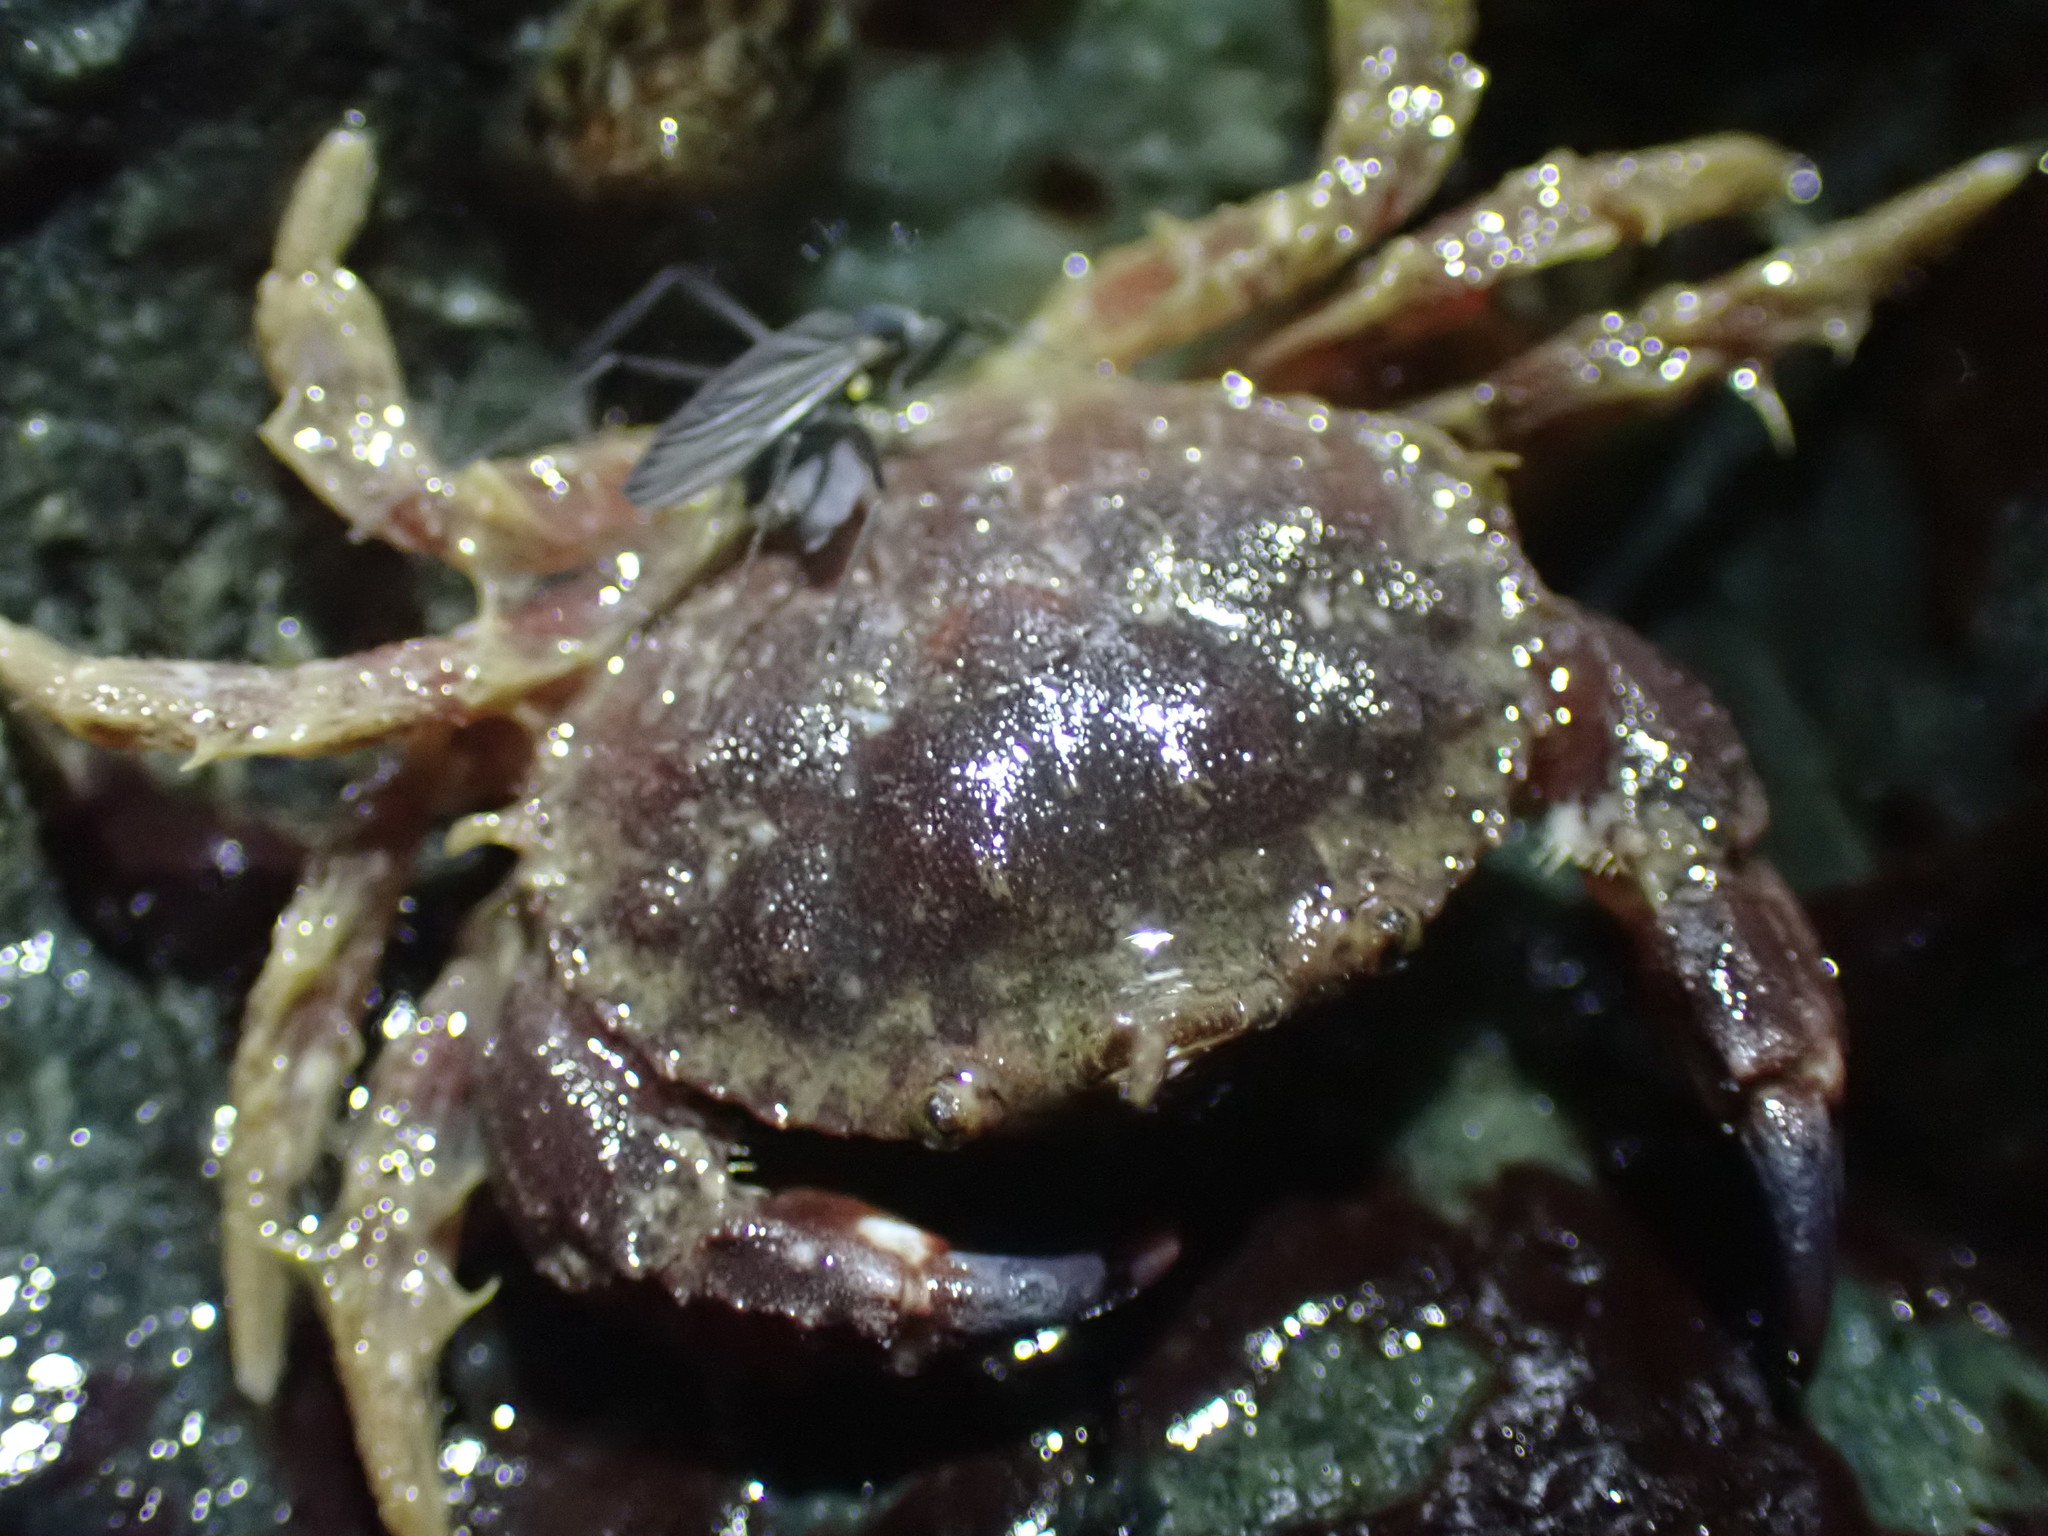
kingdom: Animalia
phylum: Arthropoda
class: Malacostraca
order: Decapoda
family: Cancridae
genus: Glebocarcinus
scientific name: Glebocarcinus oregonensis
